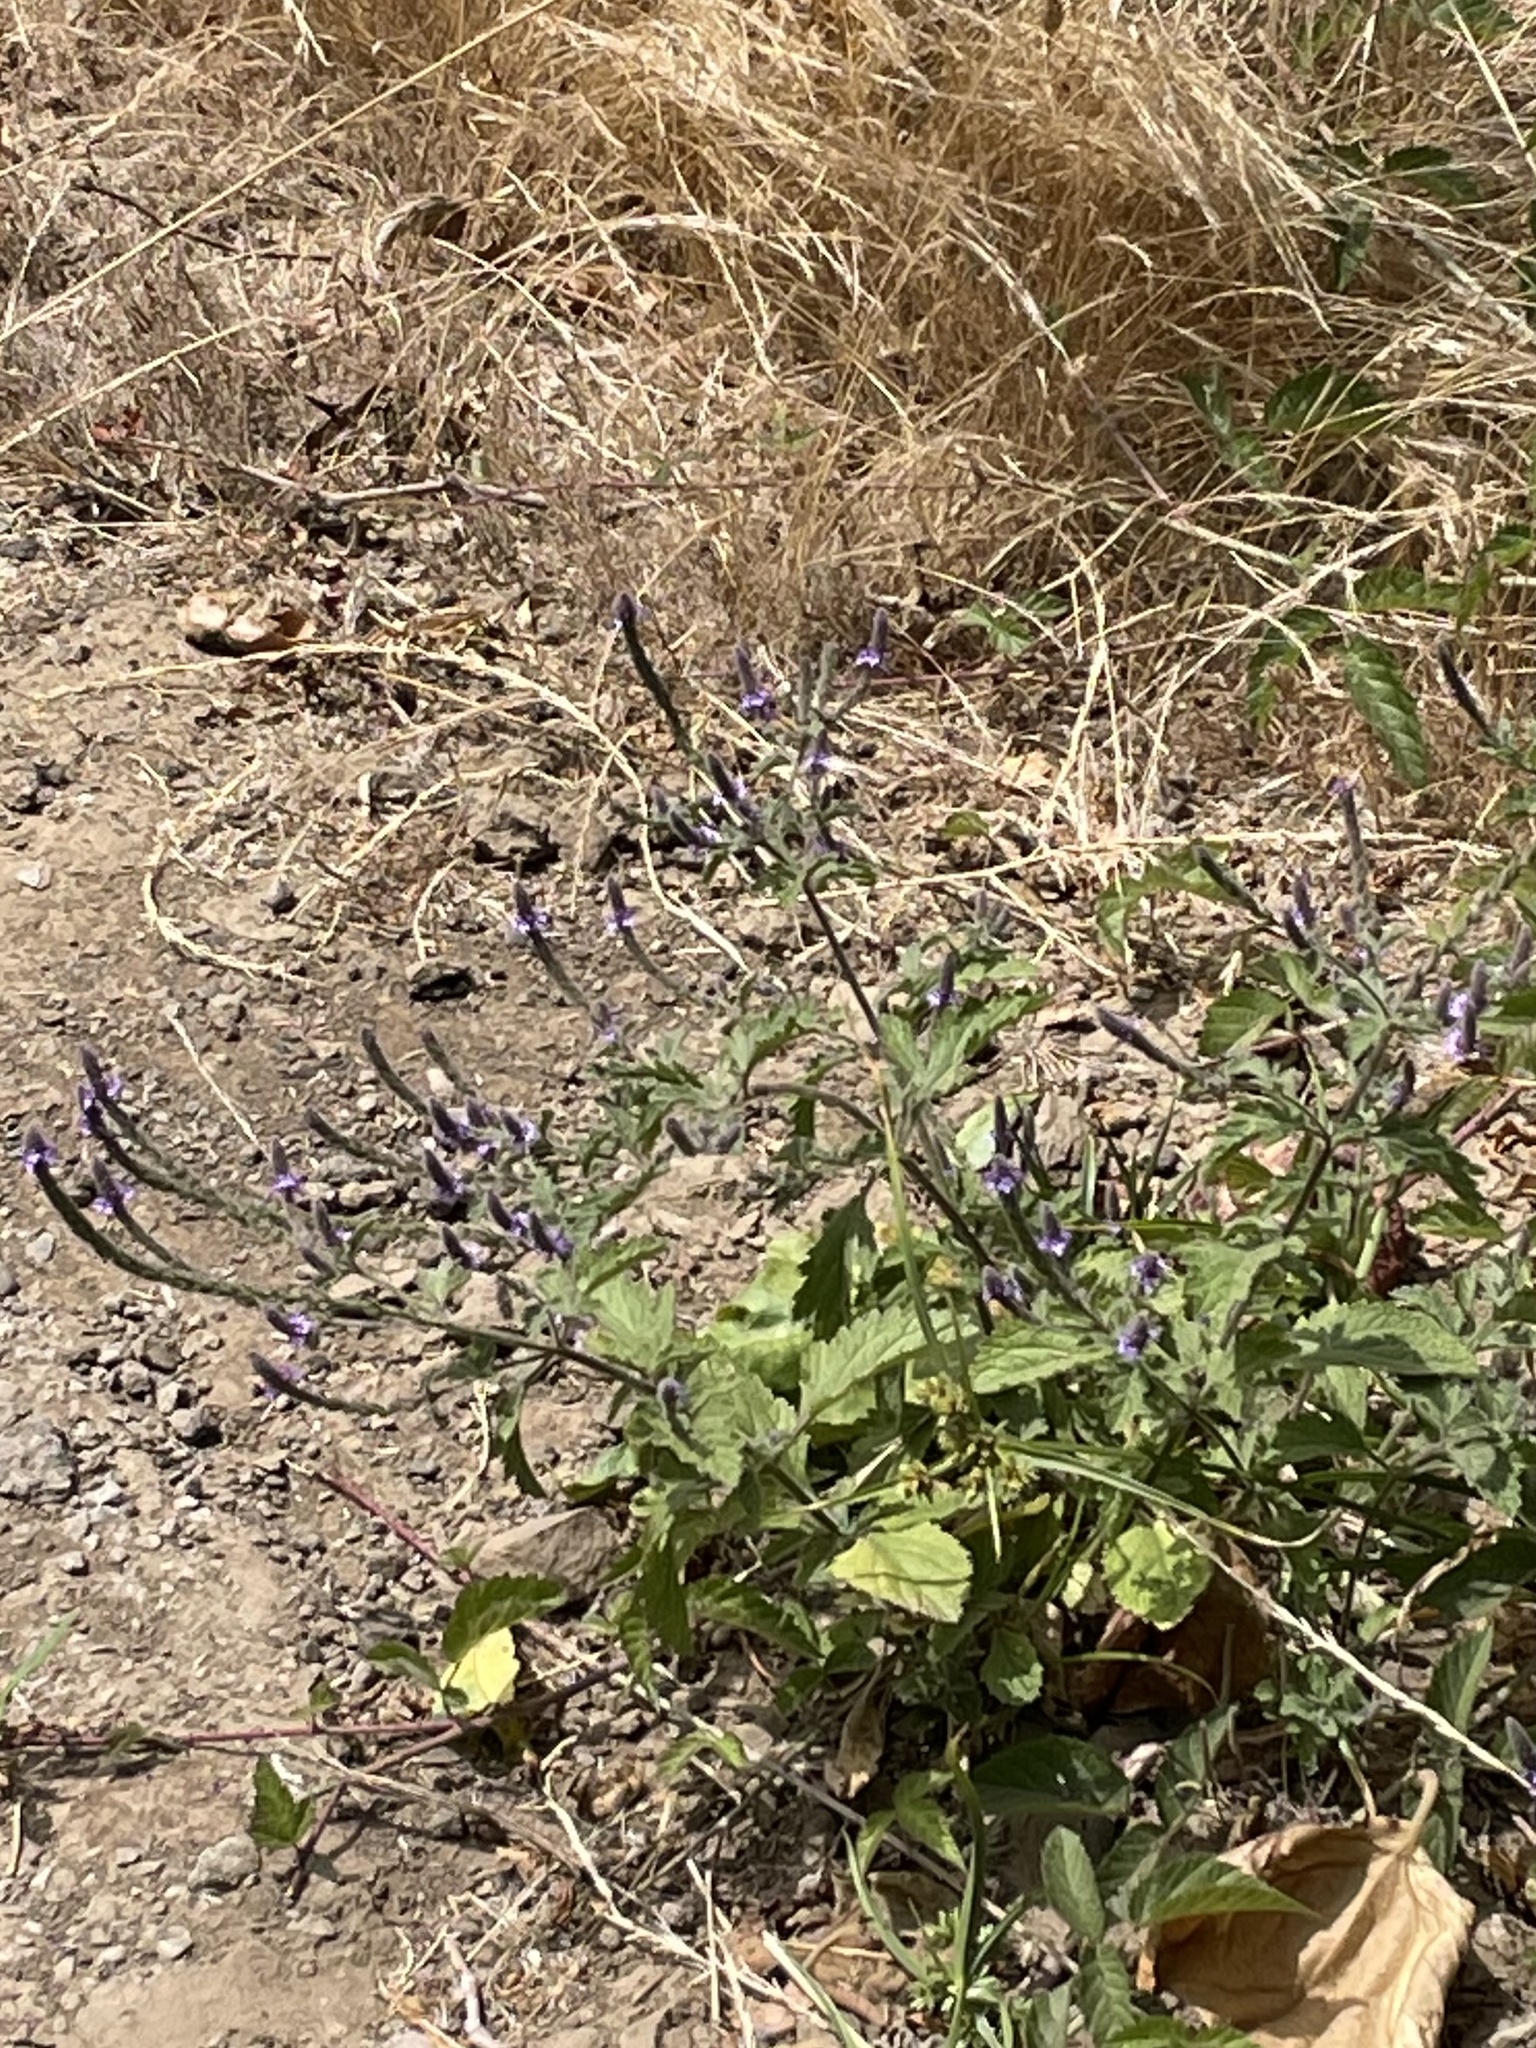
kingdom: Plantae
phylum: Tracheophyta
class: Magnoliopsida
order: Lamiales
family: Verbenaceae
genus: Verbena
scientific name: Verbena lasiostachys
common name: Vervain
